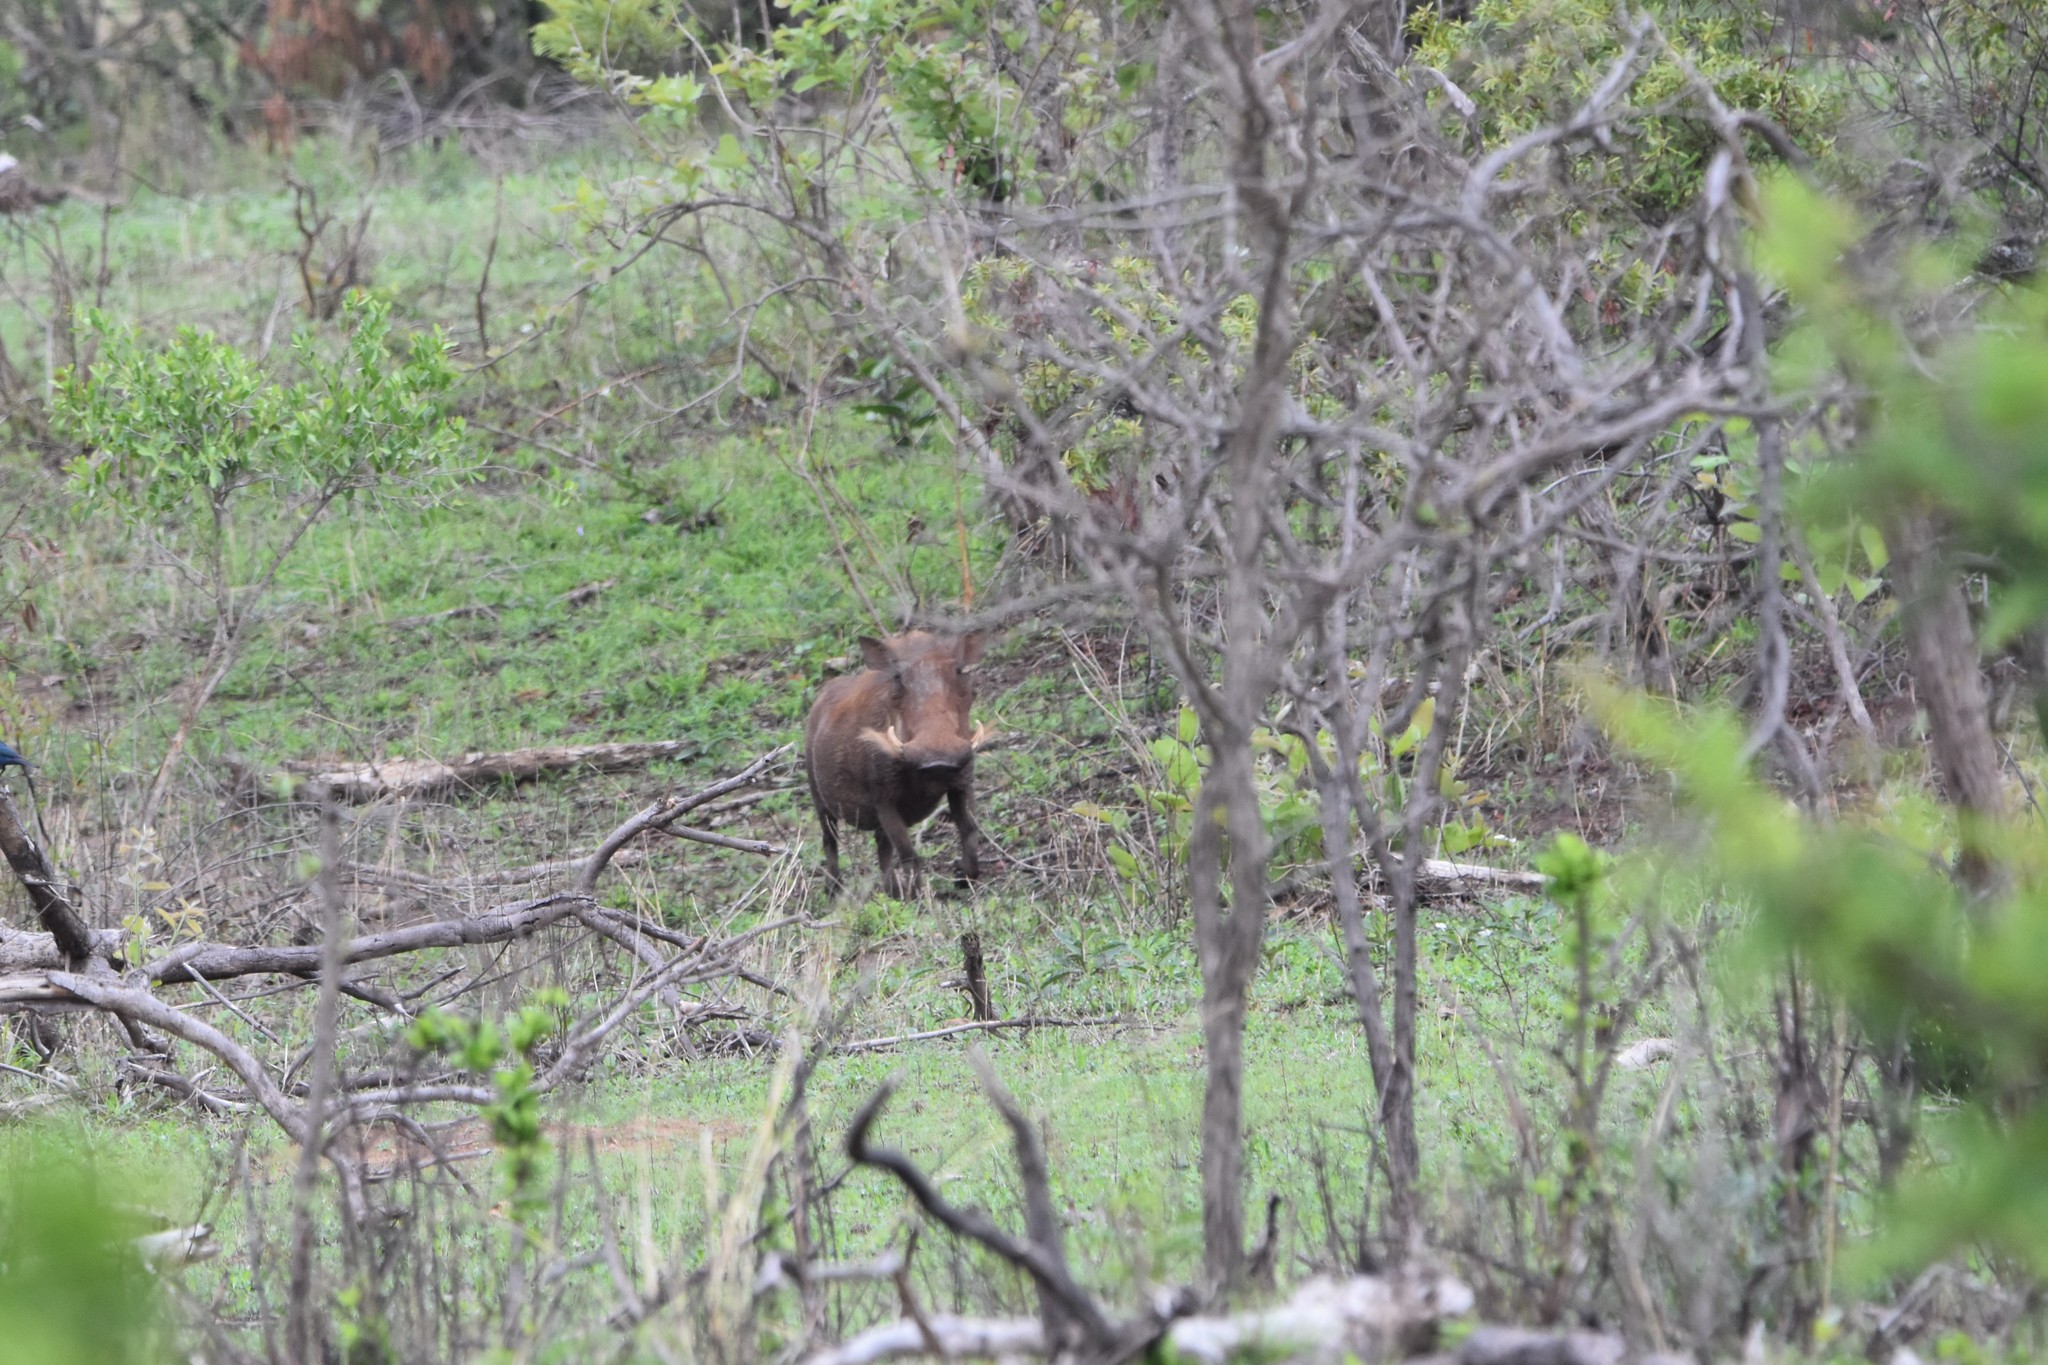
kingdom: Animalia
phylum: Chordata
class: Mammalia
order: Artiodactyla
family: Suidae
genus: Phacochoerus
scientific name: Phacochoerus africanus
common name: Common warthog
